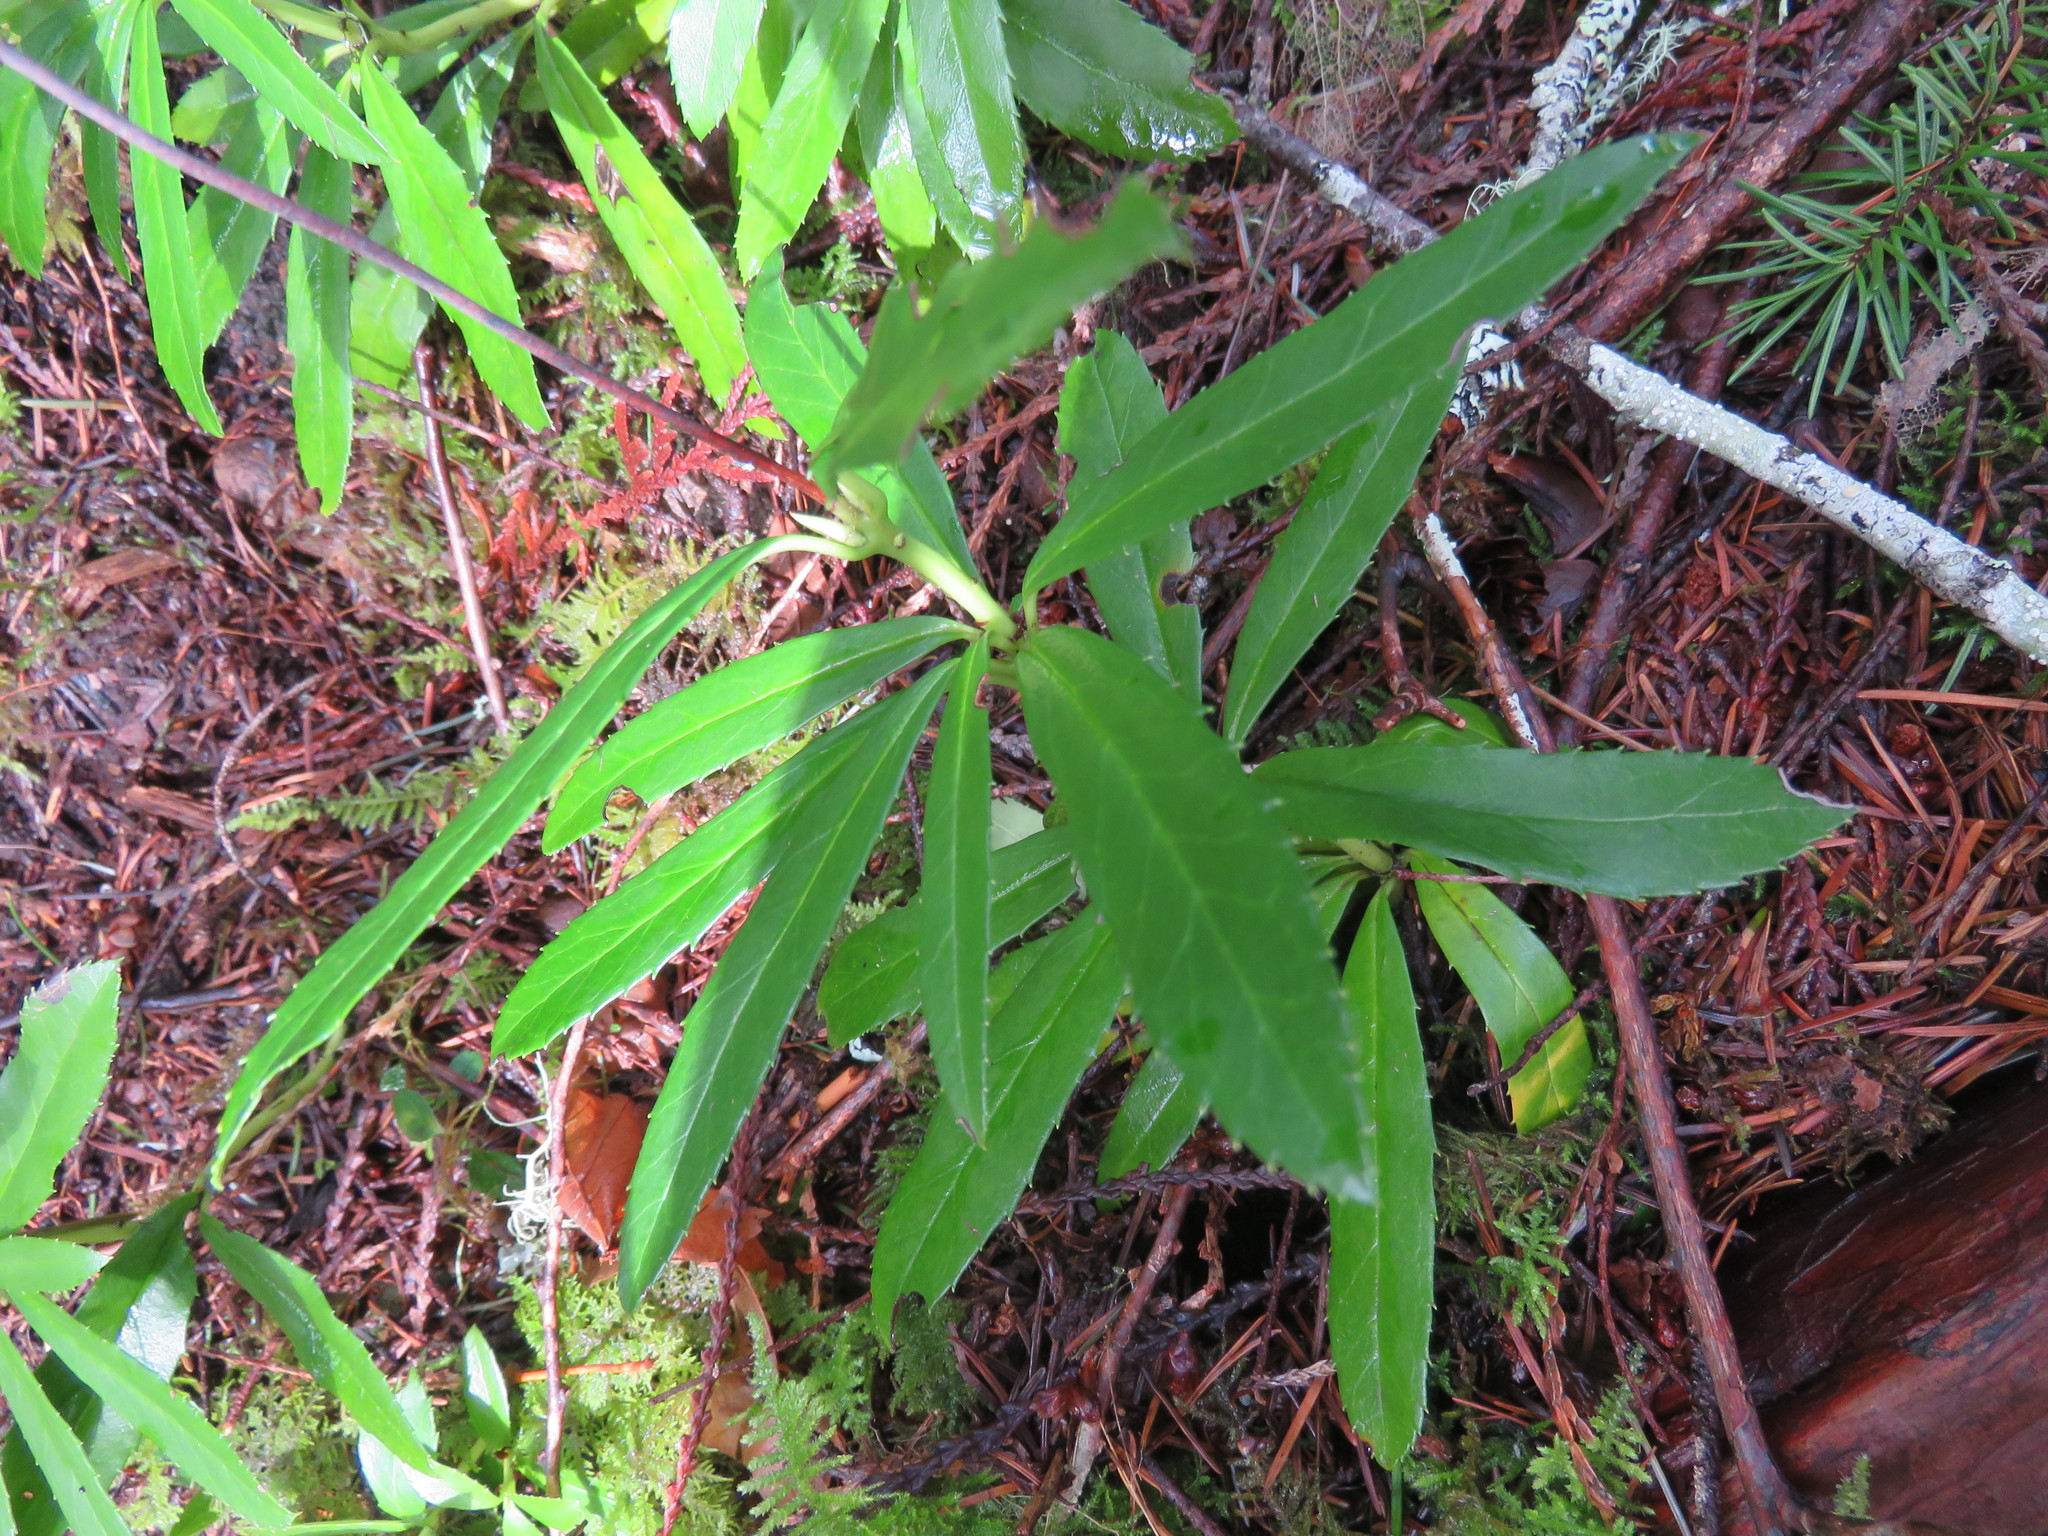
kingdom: Plantae
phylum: Tracheophyta
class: Magnoliopsida
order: Ericales
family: Ericaceae
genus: Chimaphila
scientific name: Chimaphila umbellata
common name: Pipsissewa
